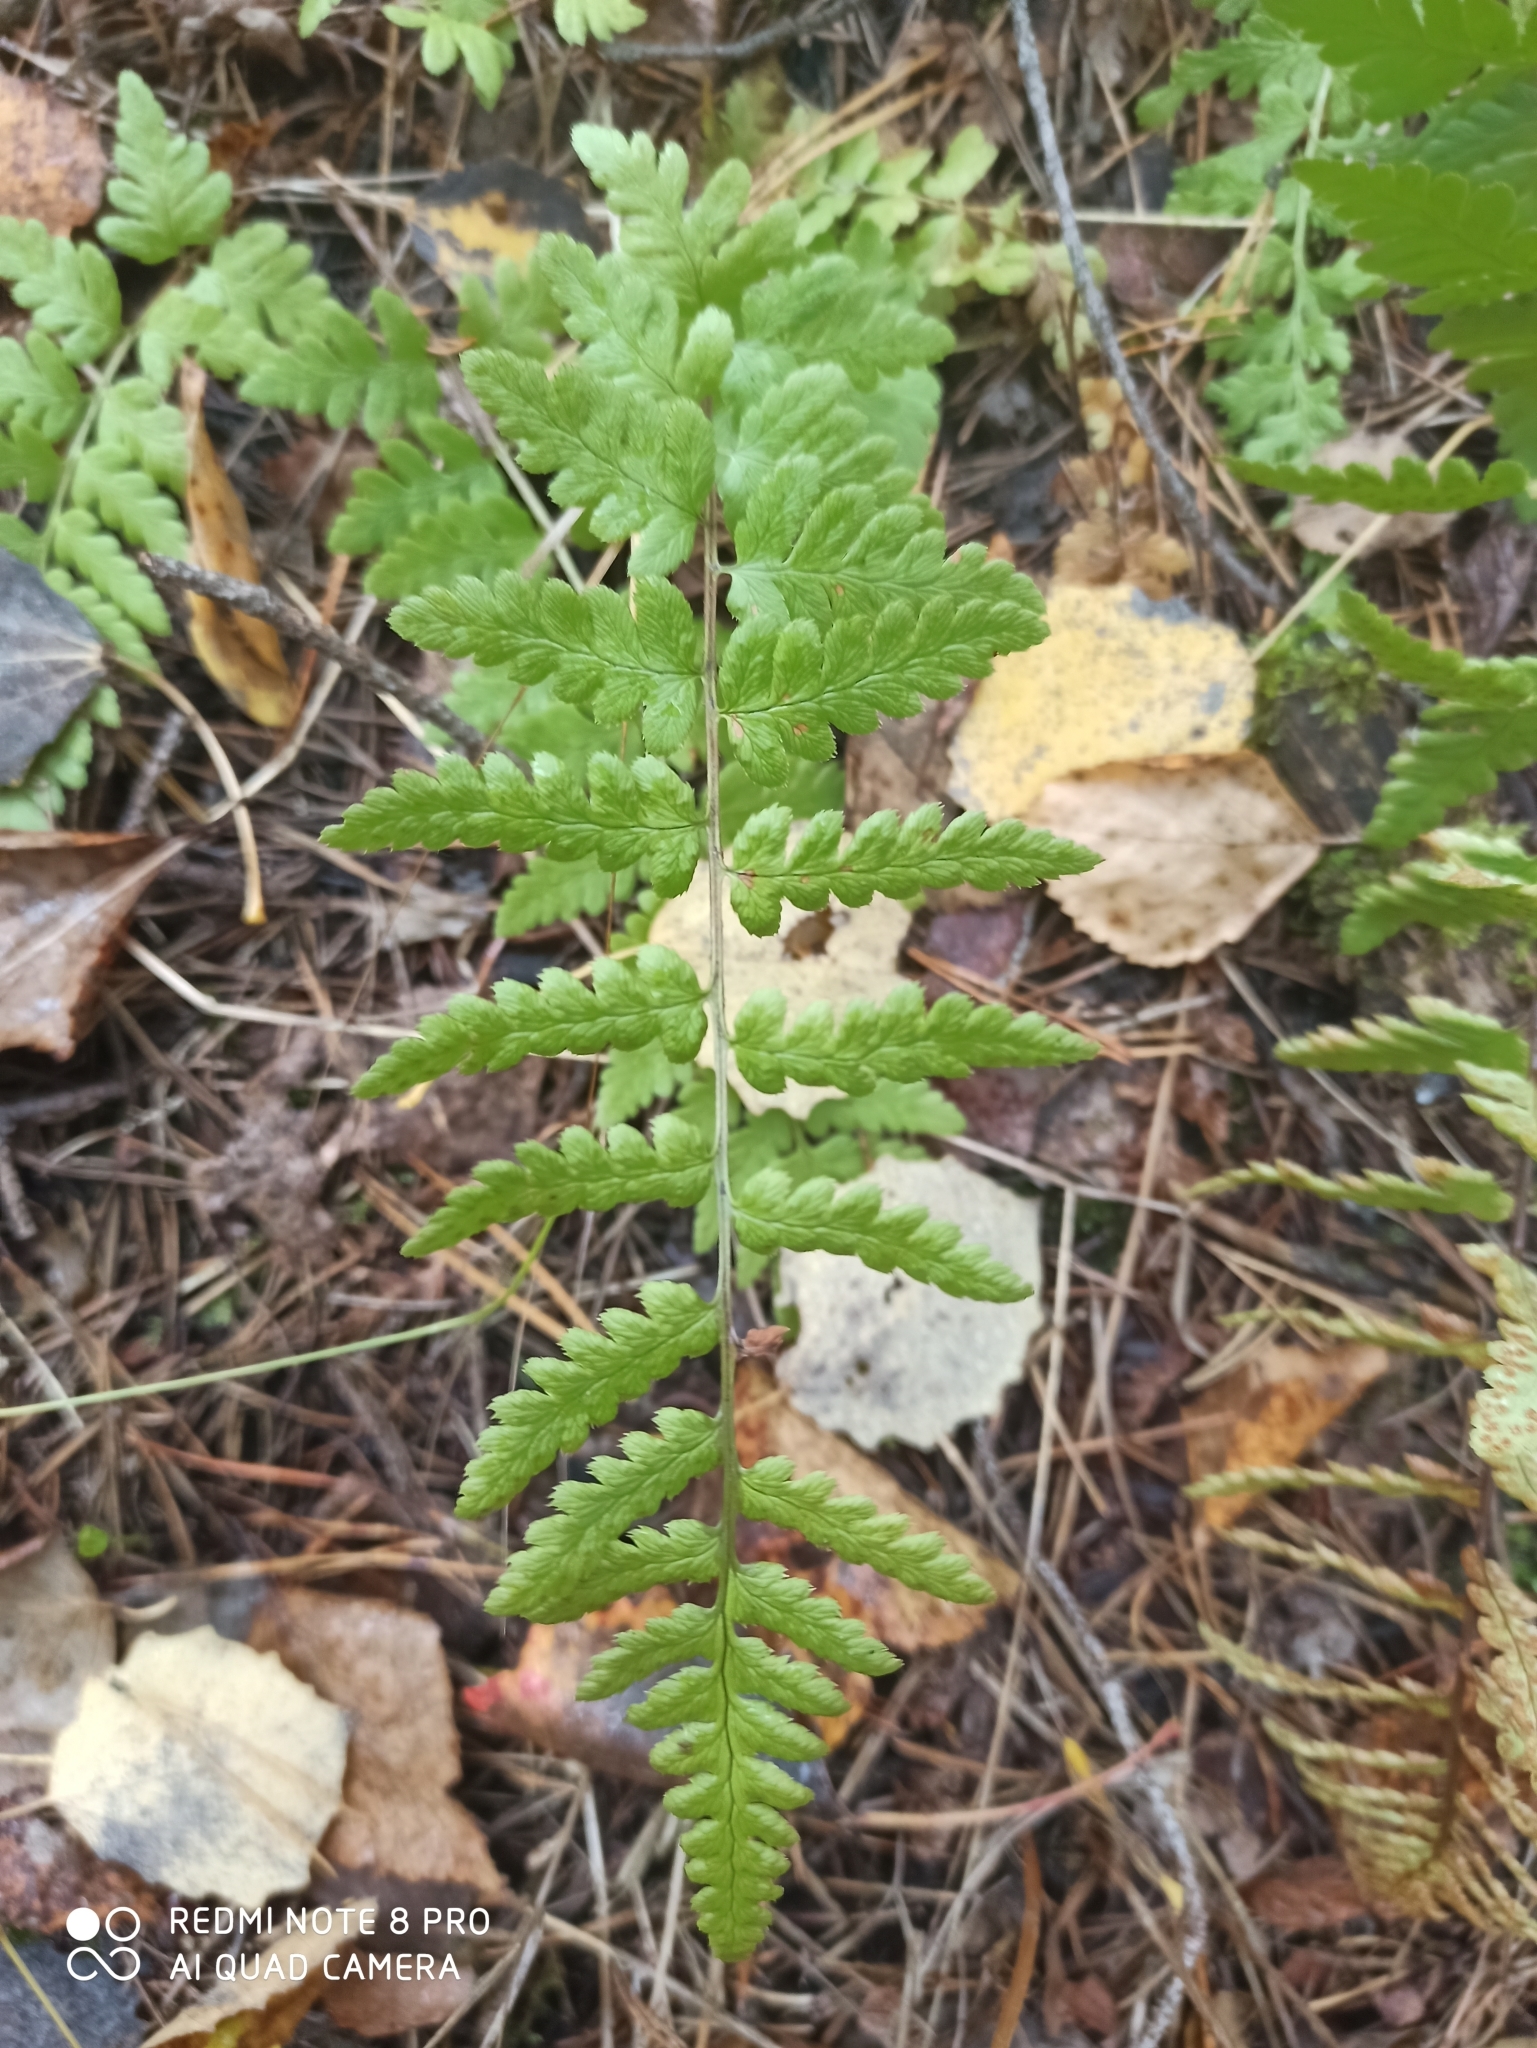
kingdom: Plantae
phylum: Tracheophyta
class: Polypodiopsida
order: Polypodiales
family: Dryopteridaceae
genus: Dryopteris
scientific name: Dryopteris cristata
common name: Crested wood fern
